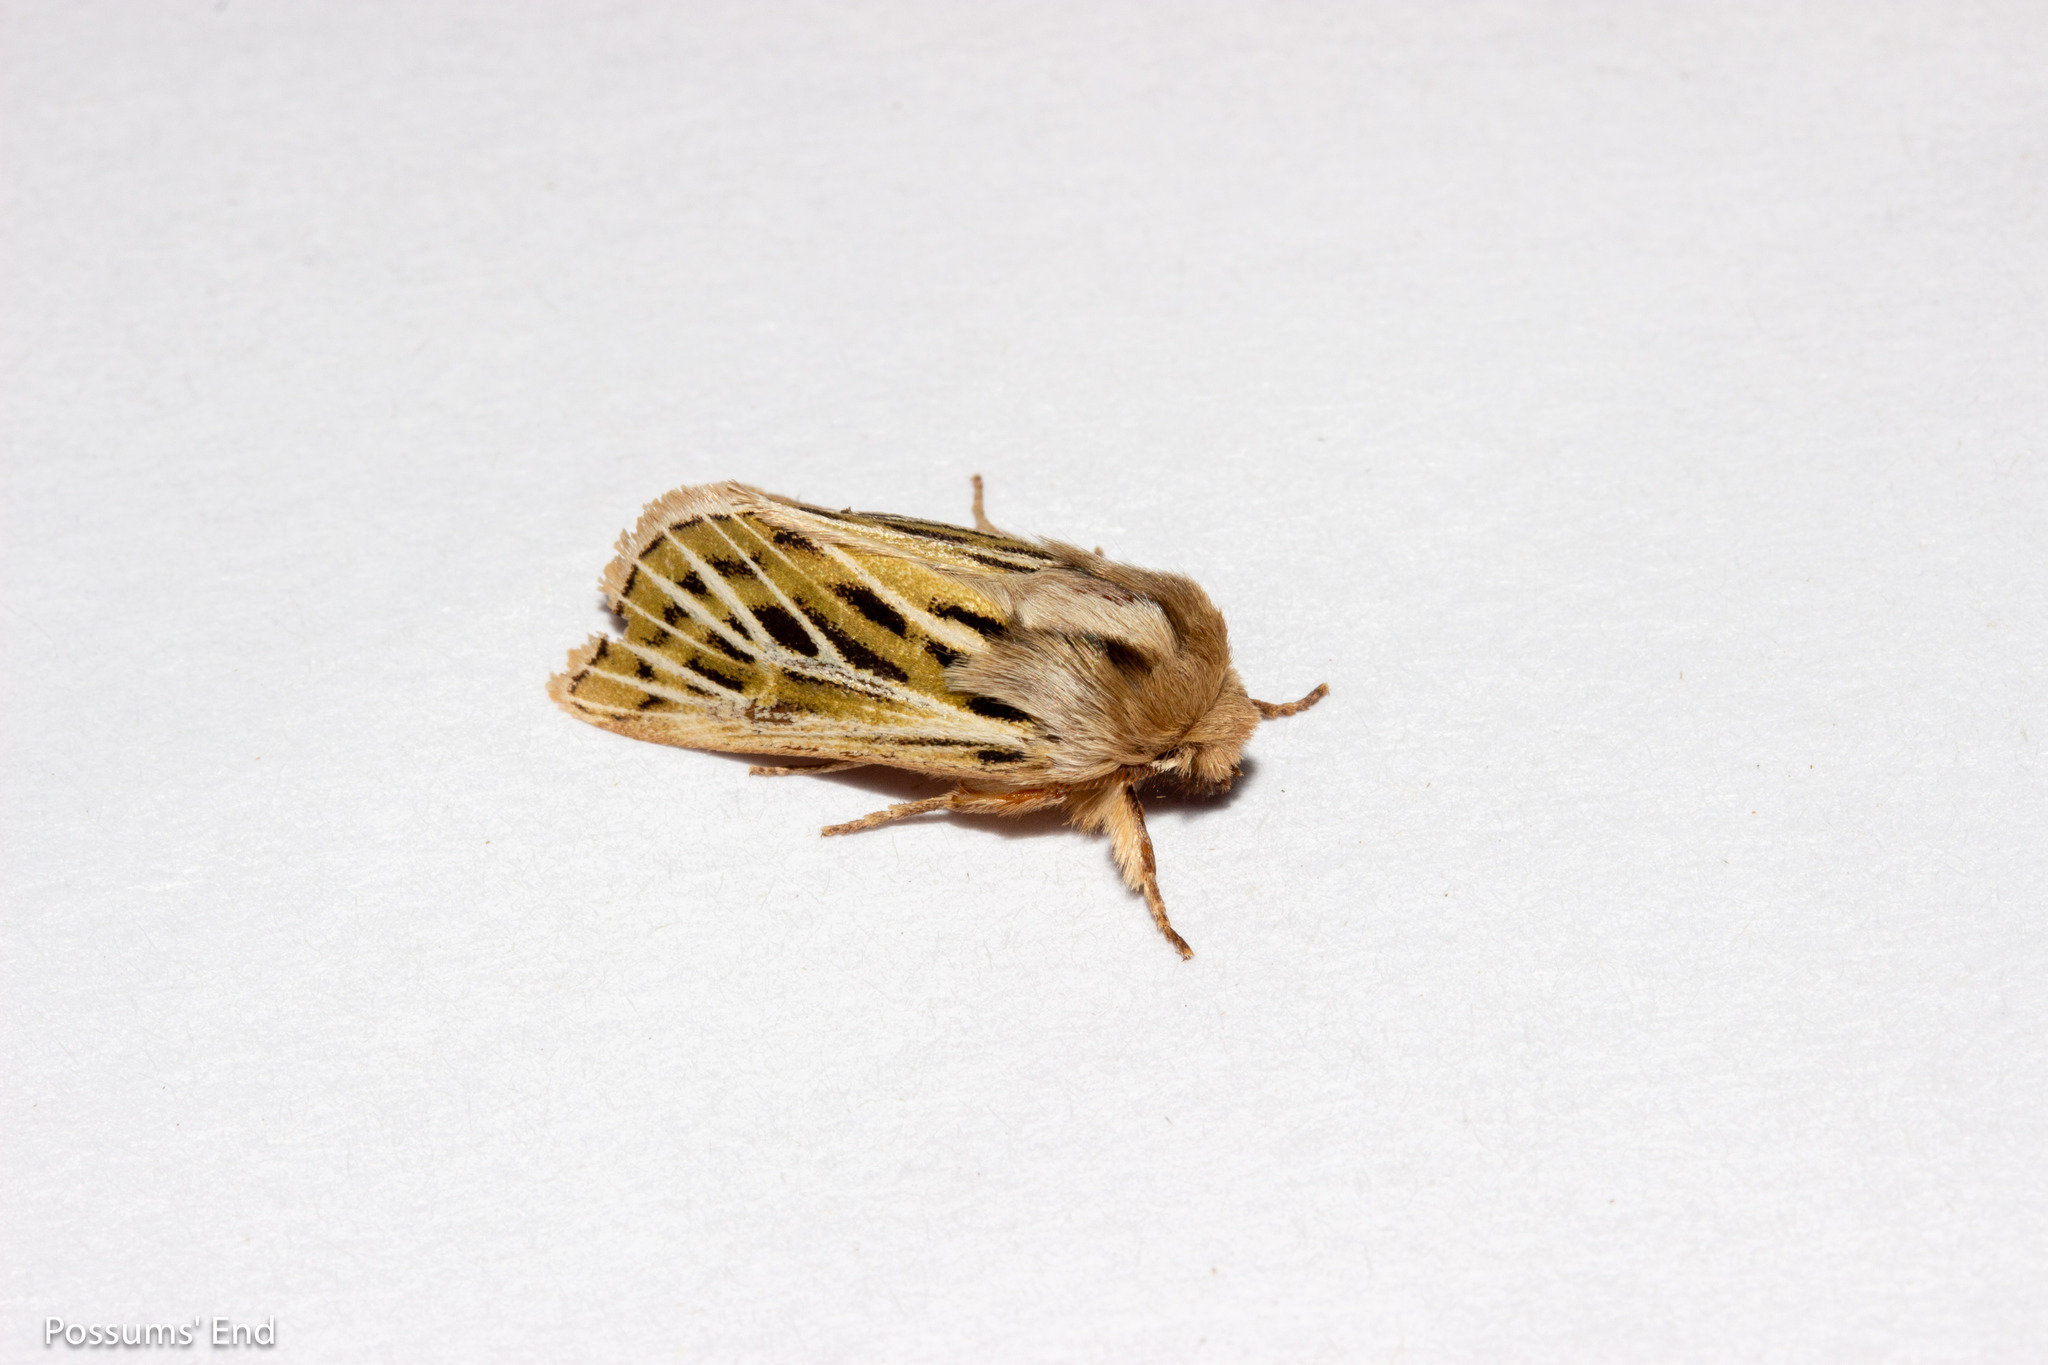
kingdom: Animalia
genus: Nivetica
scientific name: Nivetica
